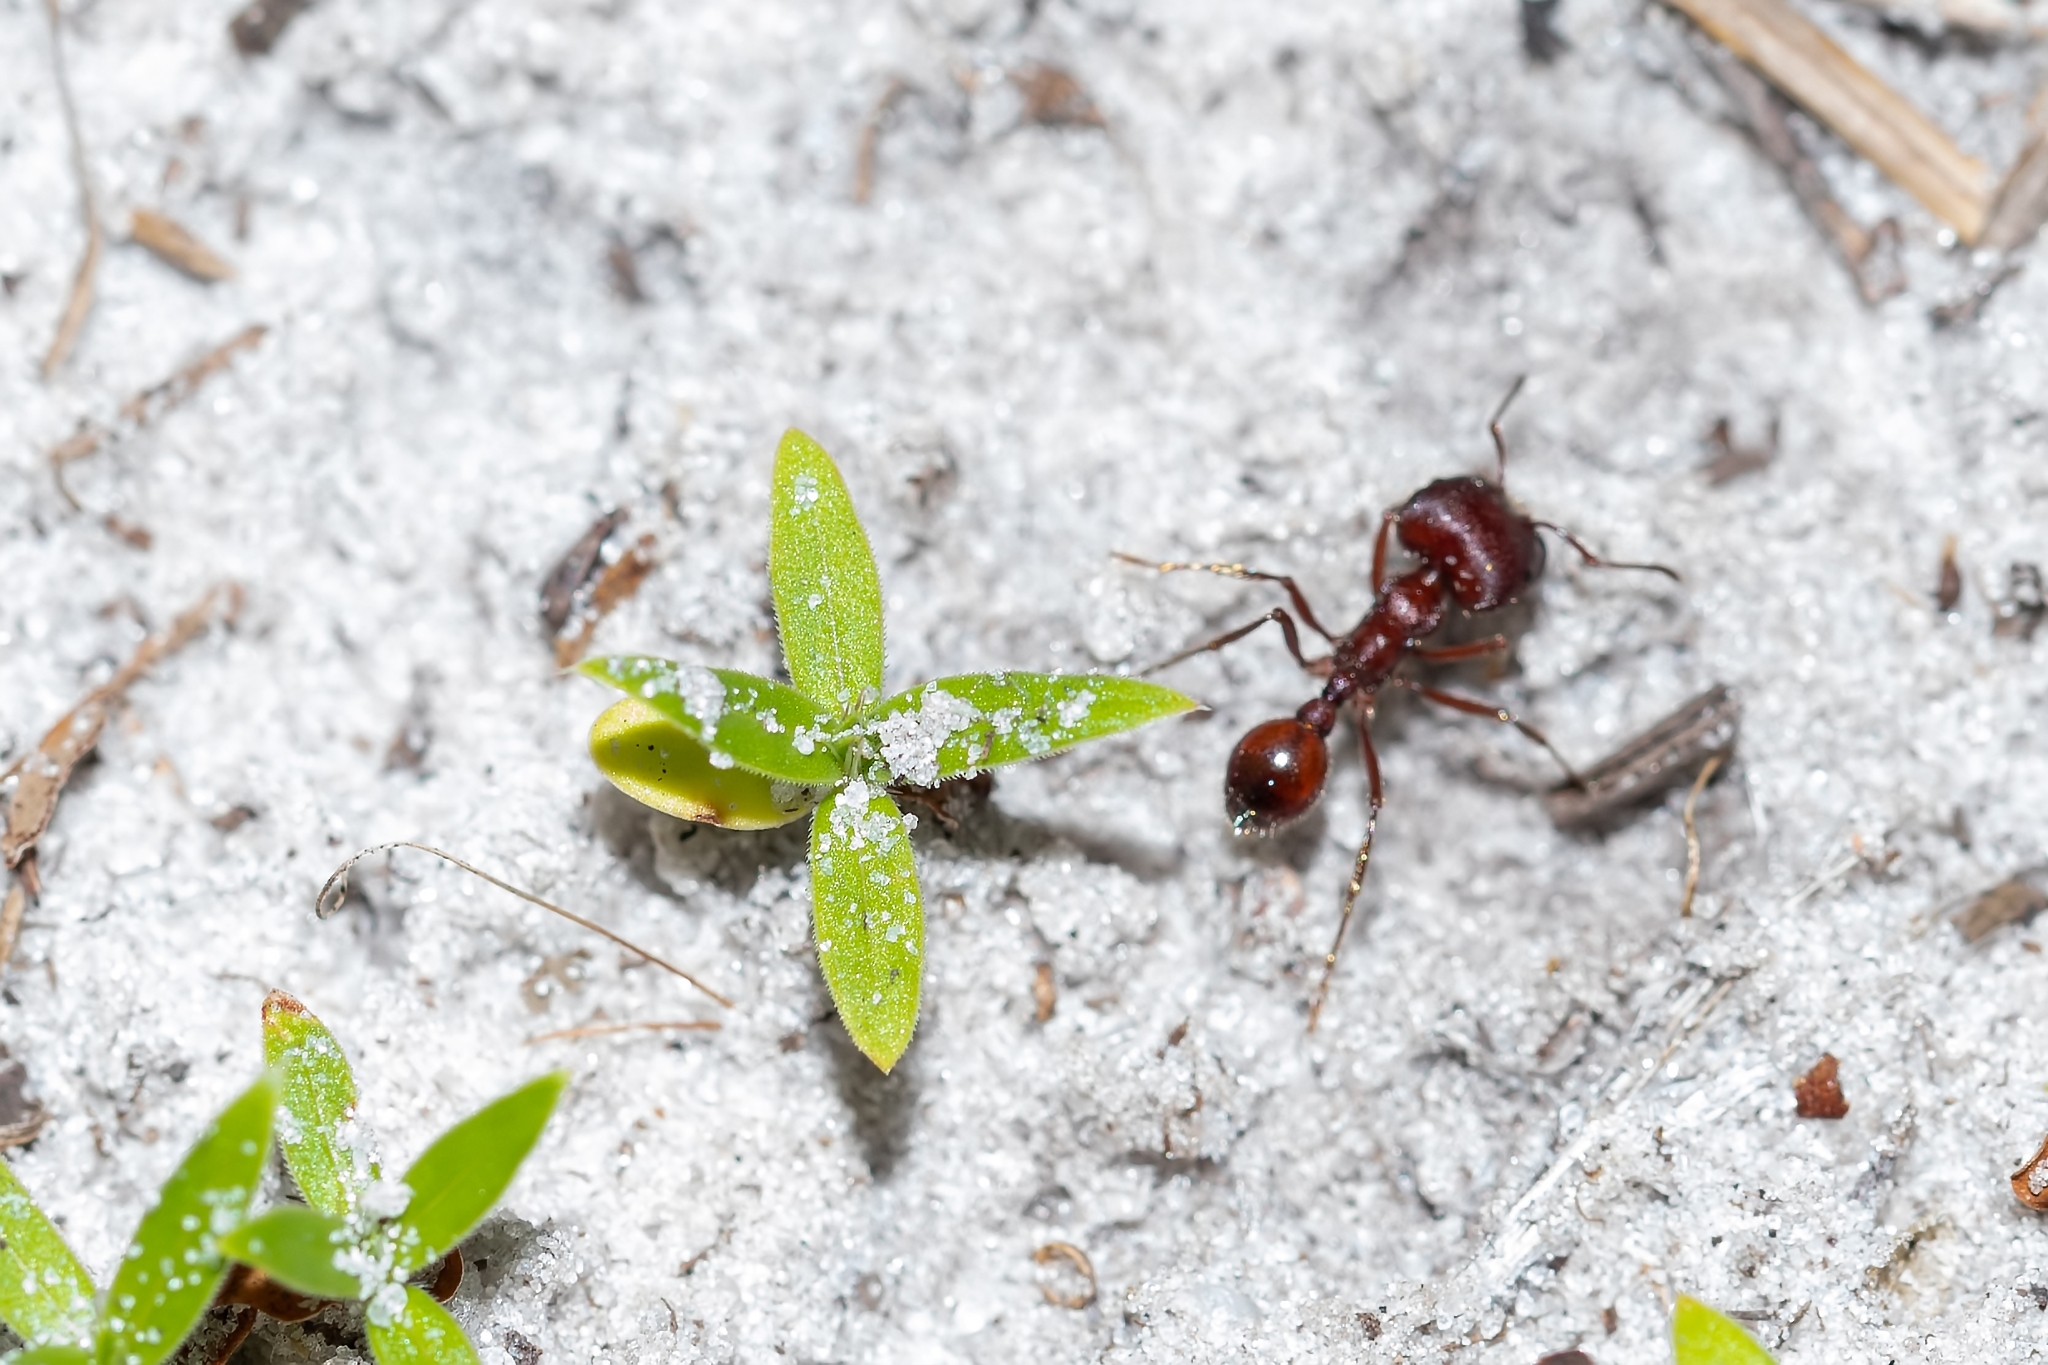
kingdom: Animalia
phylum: Arthropoda
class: Insecta
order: Hymenoptera
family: Formicidae
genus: Pogonomyrmex
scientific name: Pogonomyrmex badius
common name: Florida harvester ant
